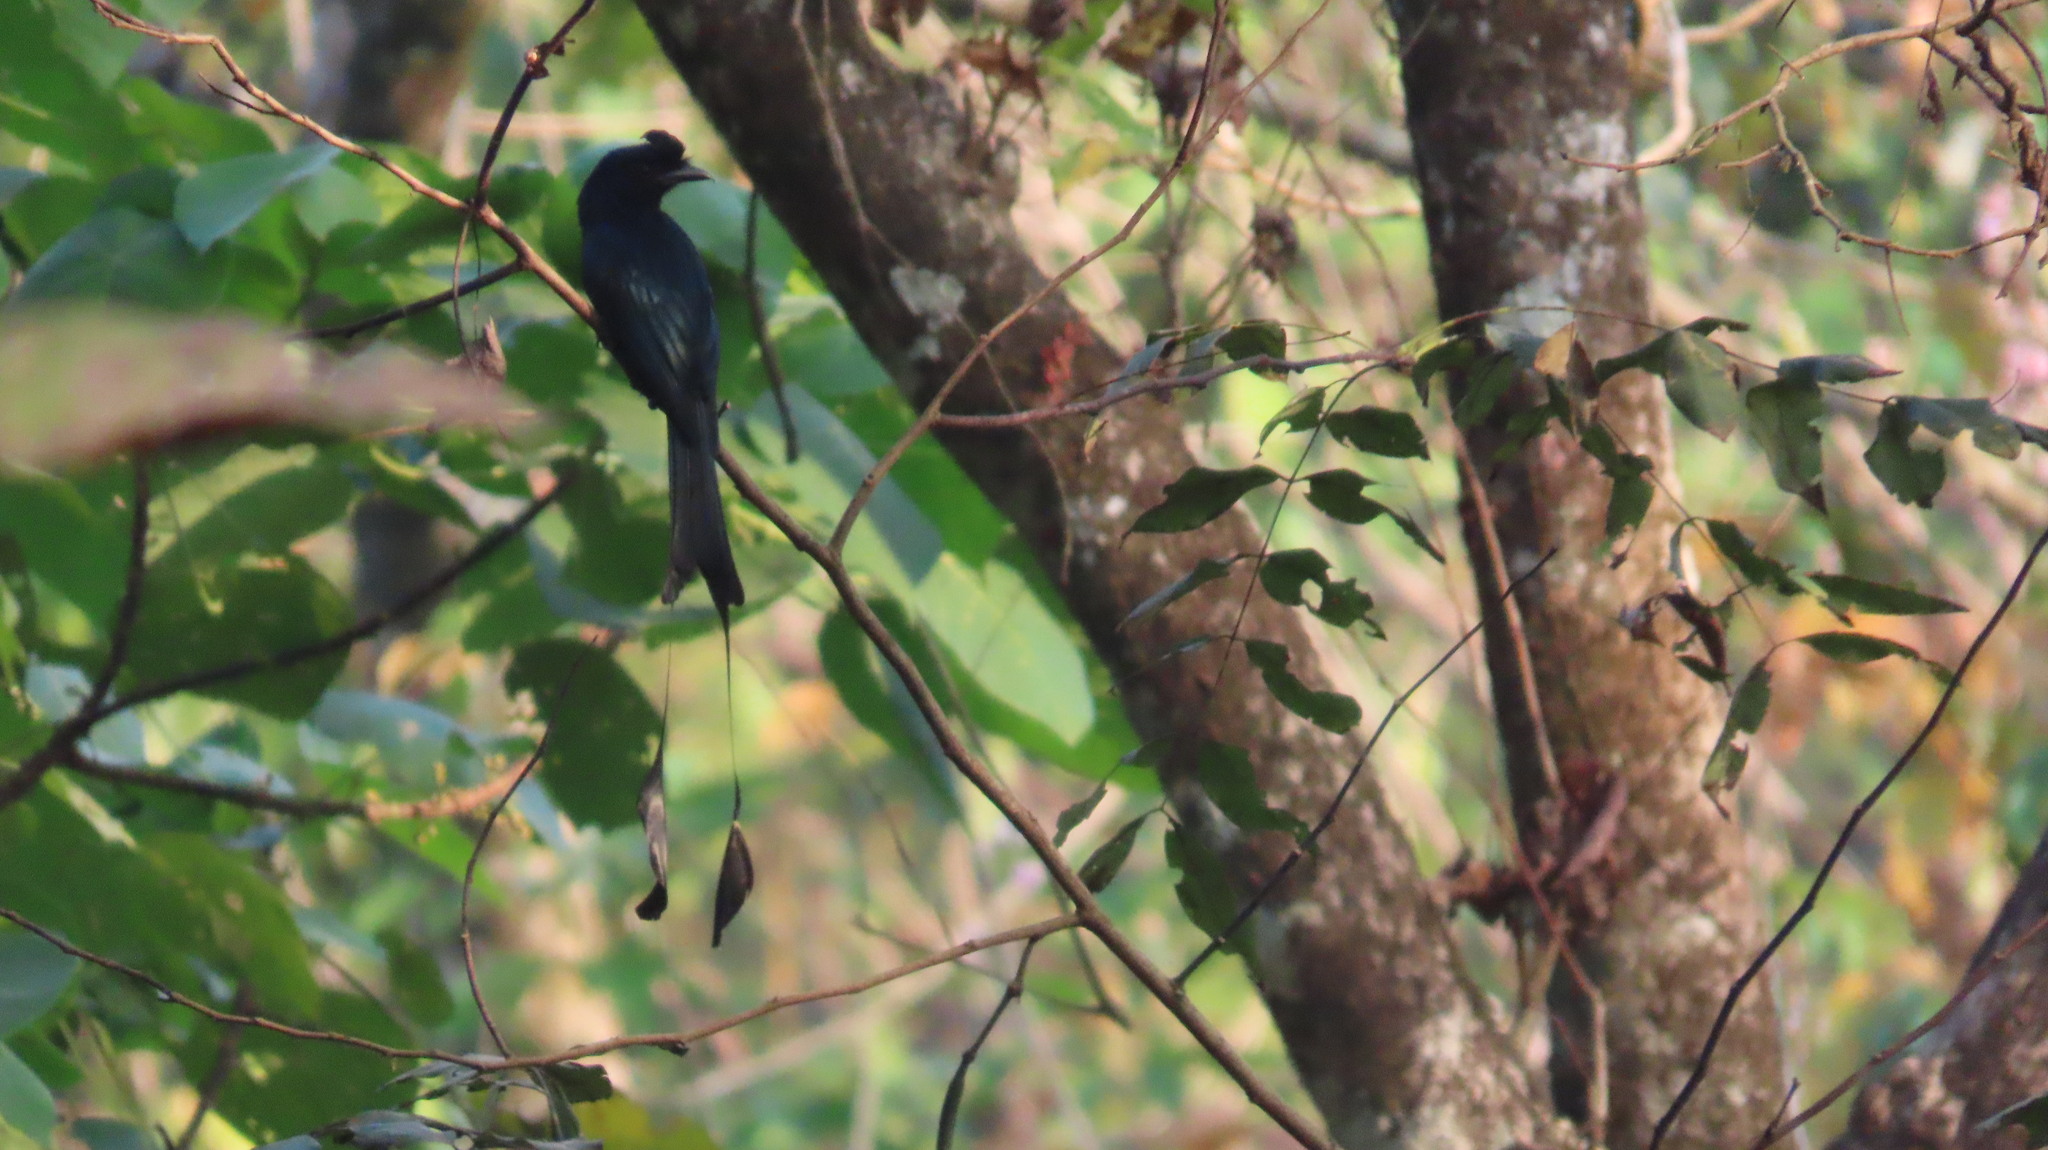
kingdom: Animalia
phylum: Chordata
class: Aves
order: Passeriformes
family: Dicruridae
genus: Dicrurus
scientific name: Dicrurus paradiseus
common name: Greater racket-tailed drongo
